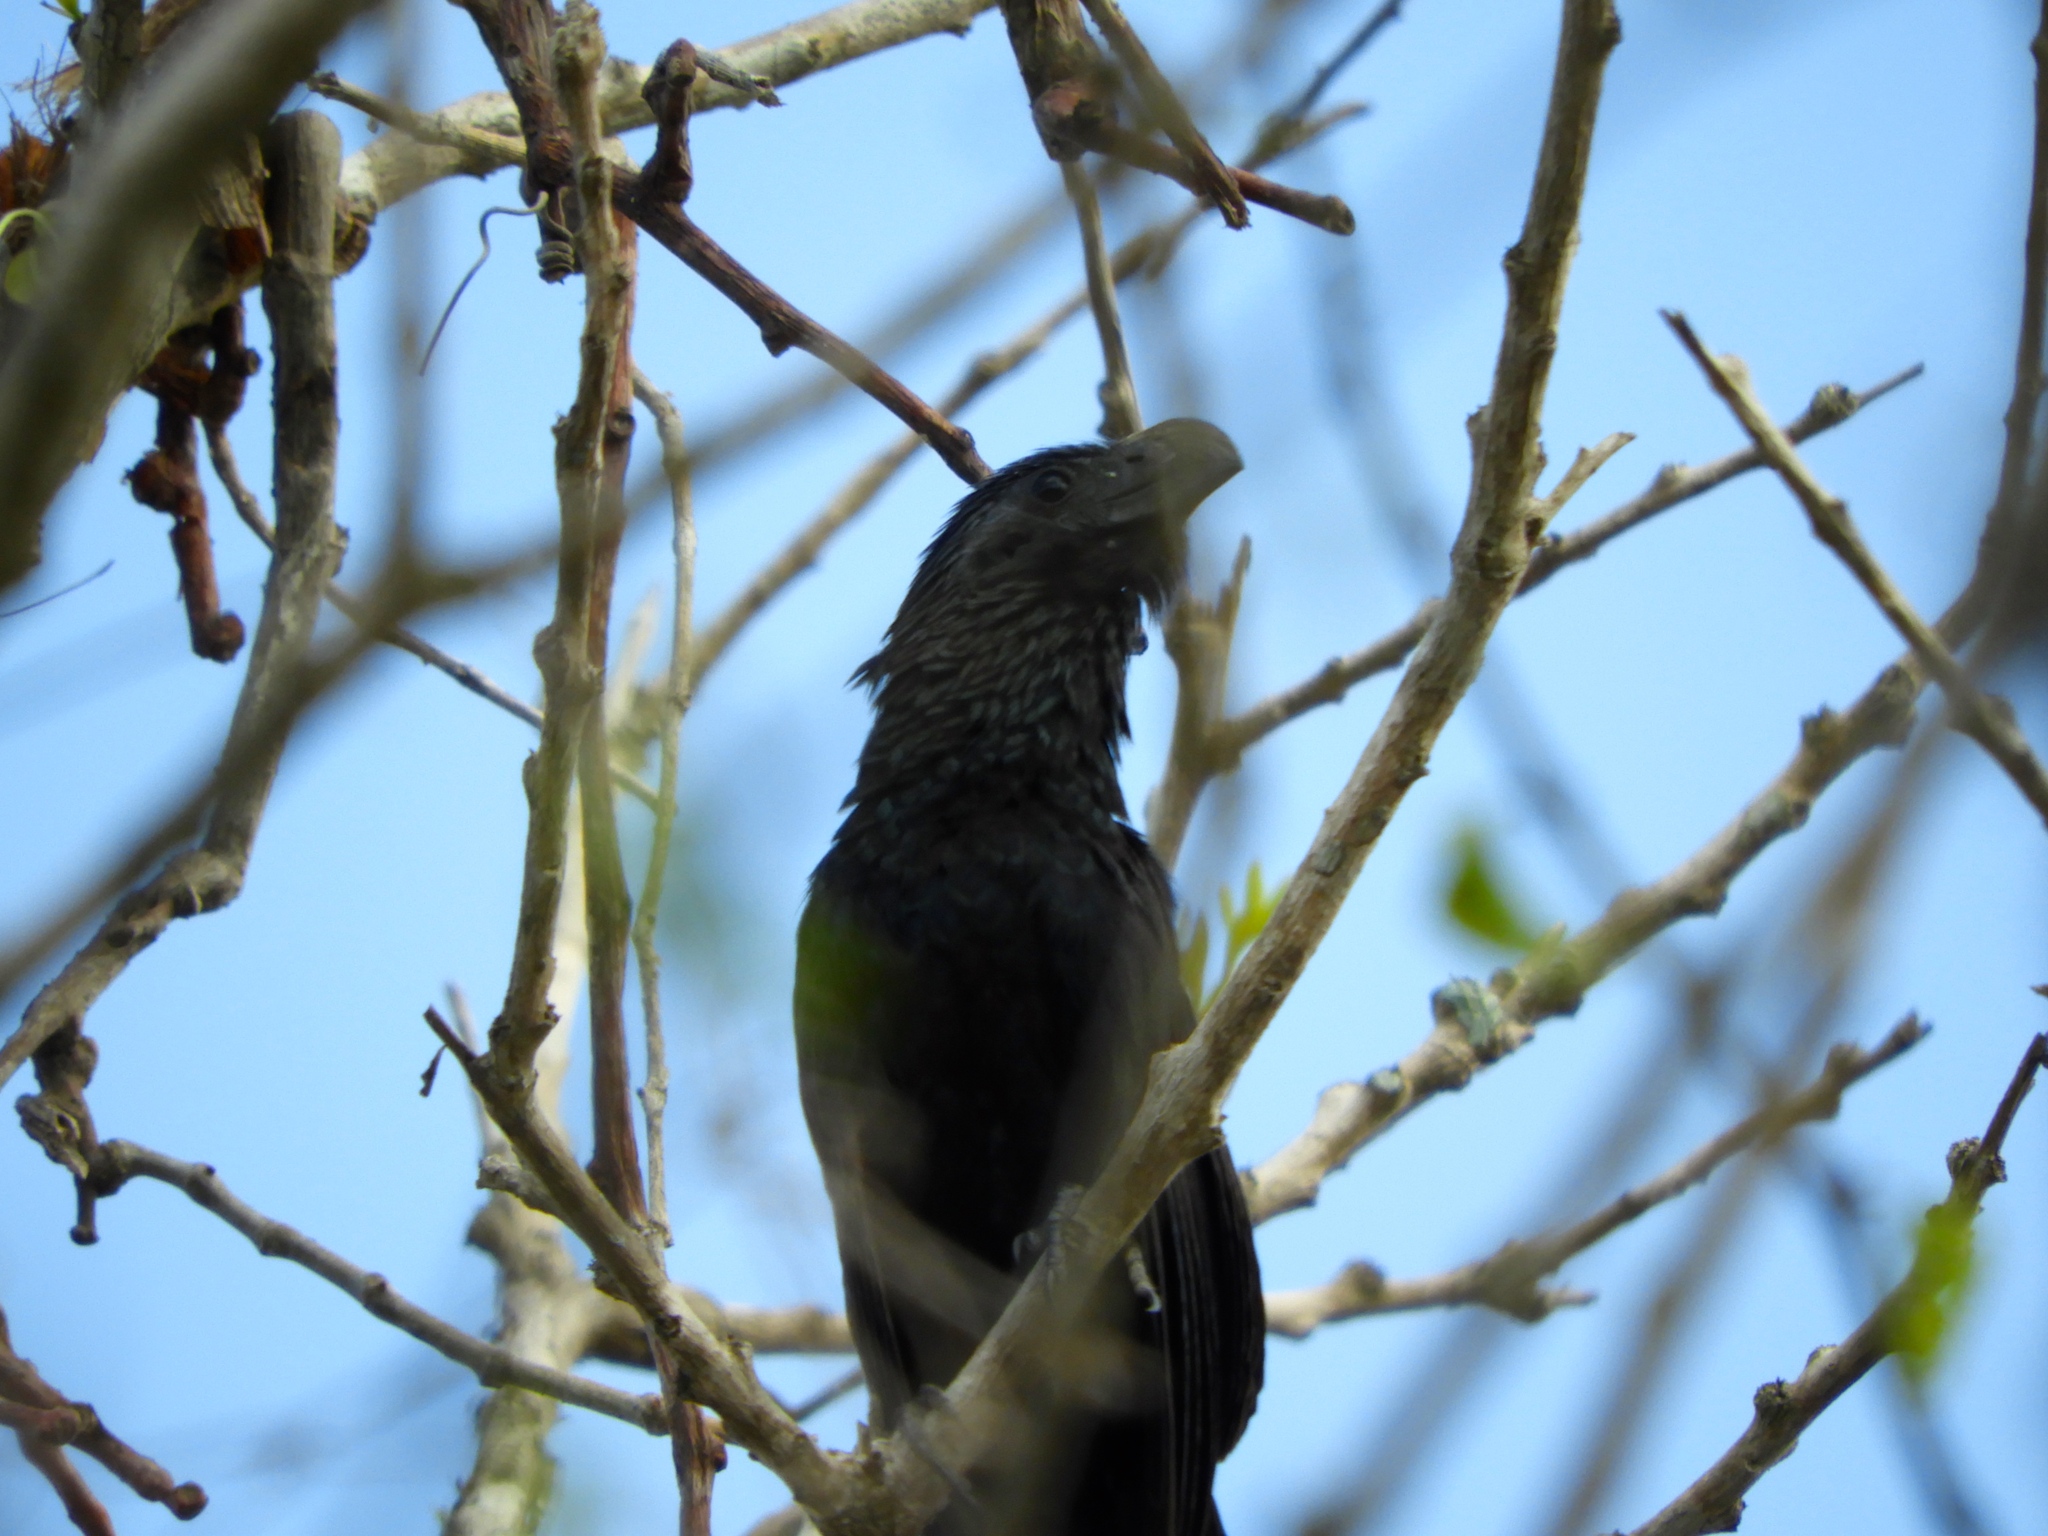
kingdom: Animalia
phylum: Chordata
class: Aves
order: Cuculiformes
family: Cuculidae
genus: Crotophaga
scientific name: Crotophaga sulcirostris
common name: Groove-billed ani
